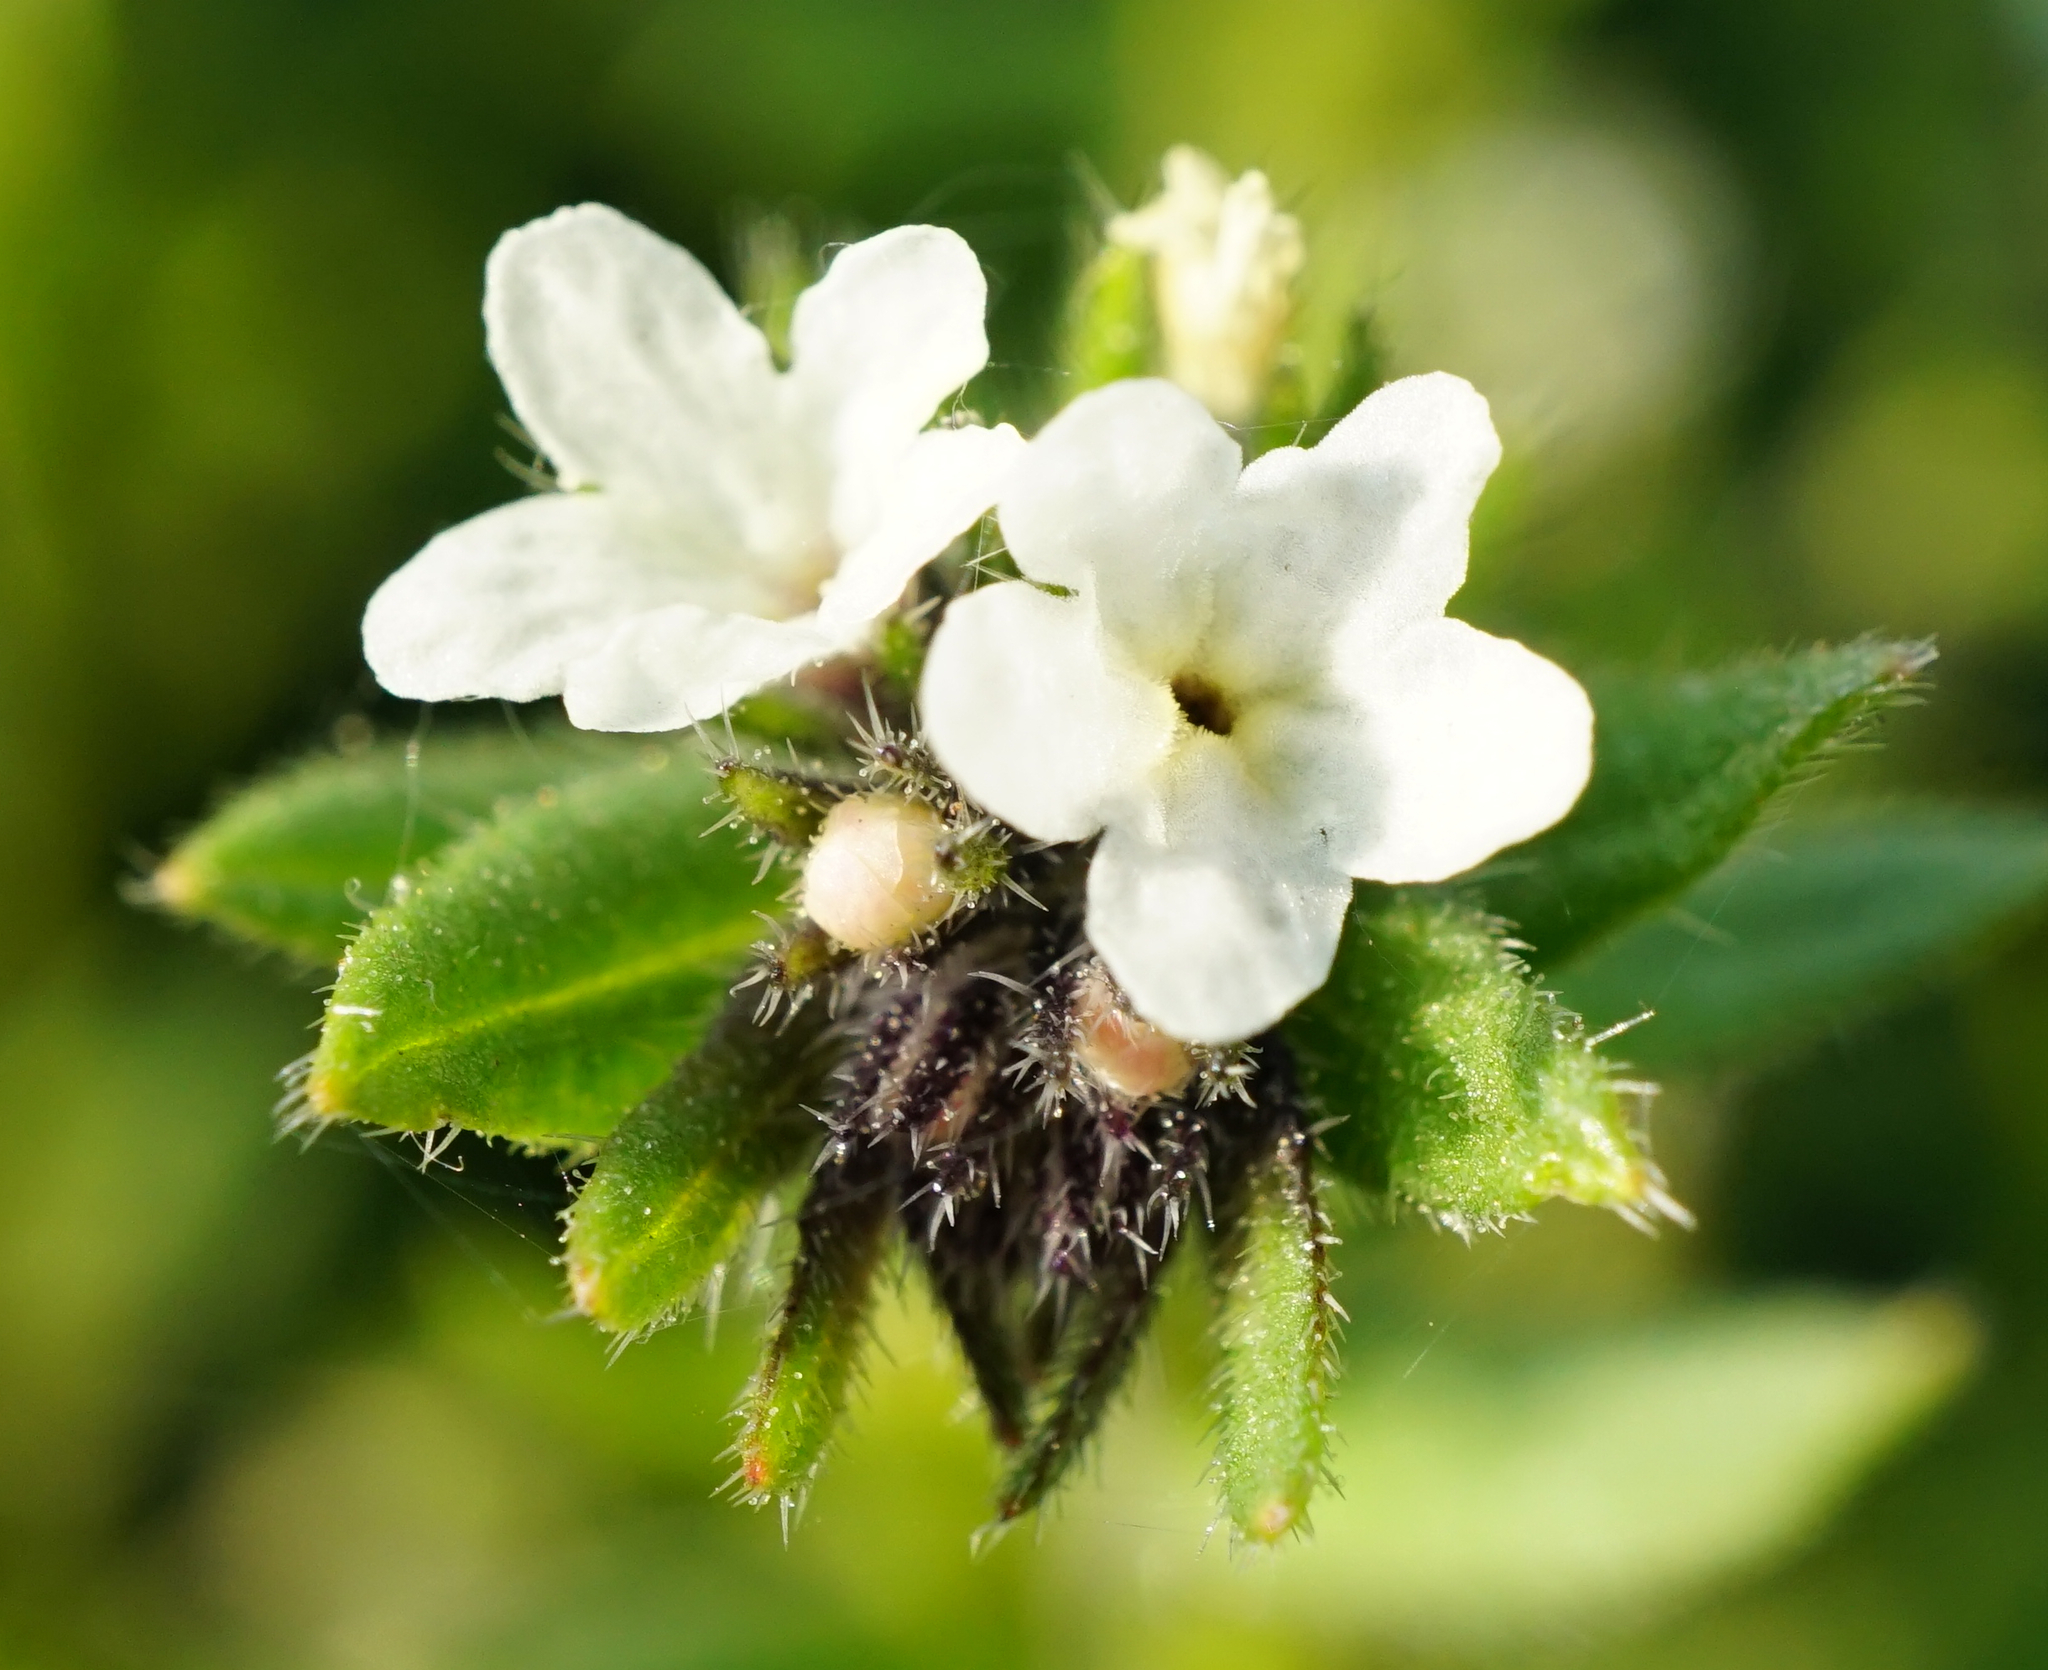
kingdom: Plantae
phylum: Tracheophyta
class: Magnoliopsida
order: Boraginales
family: Boraginaceae
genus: Buglossoides
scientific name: Buglossoides incrassata
